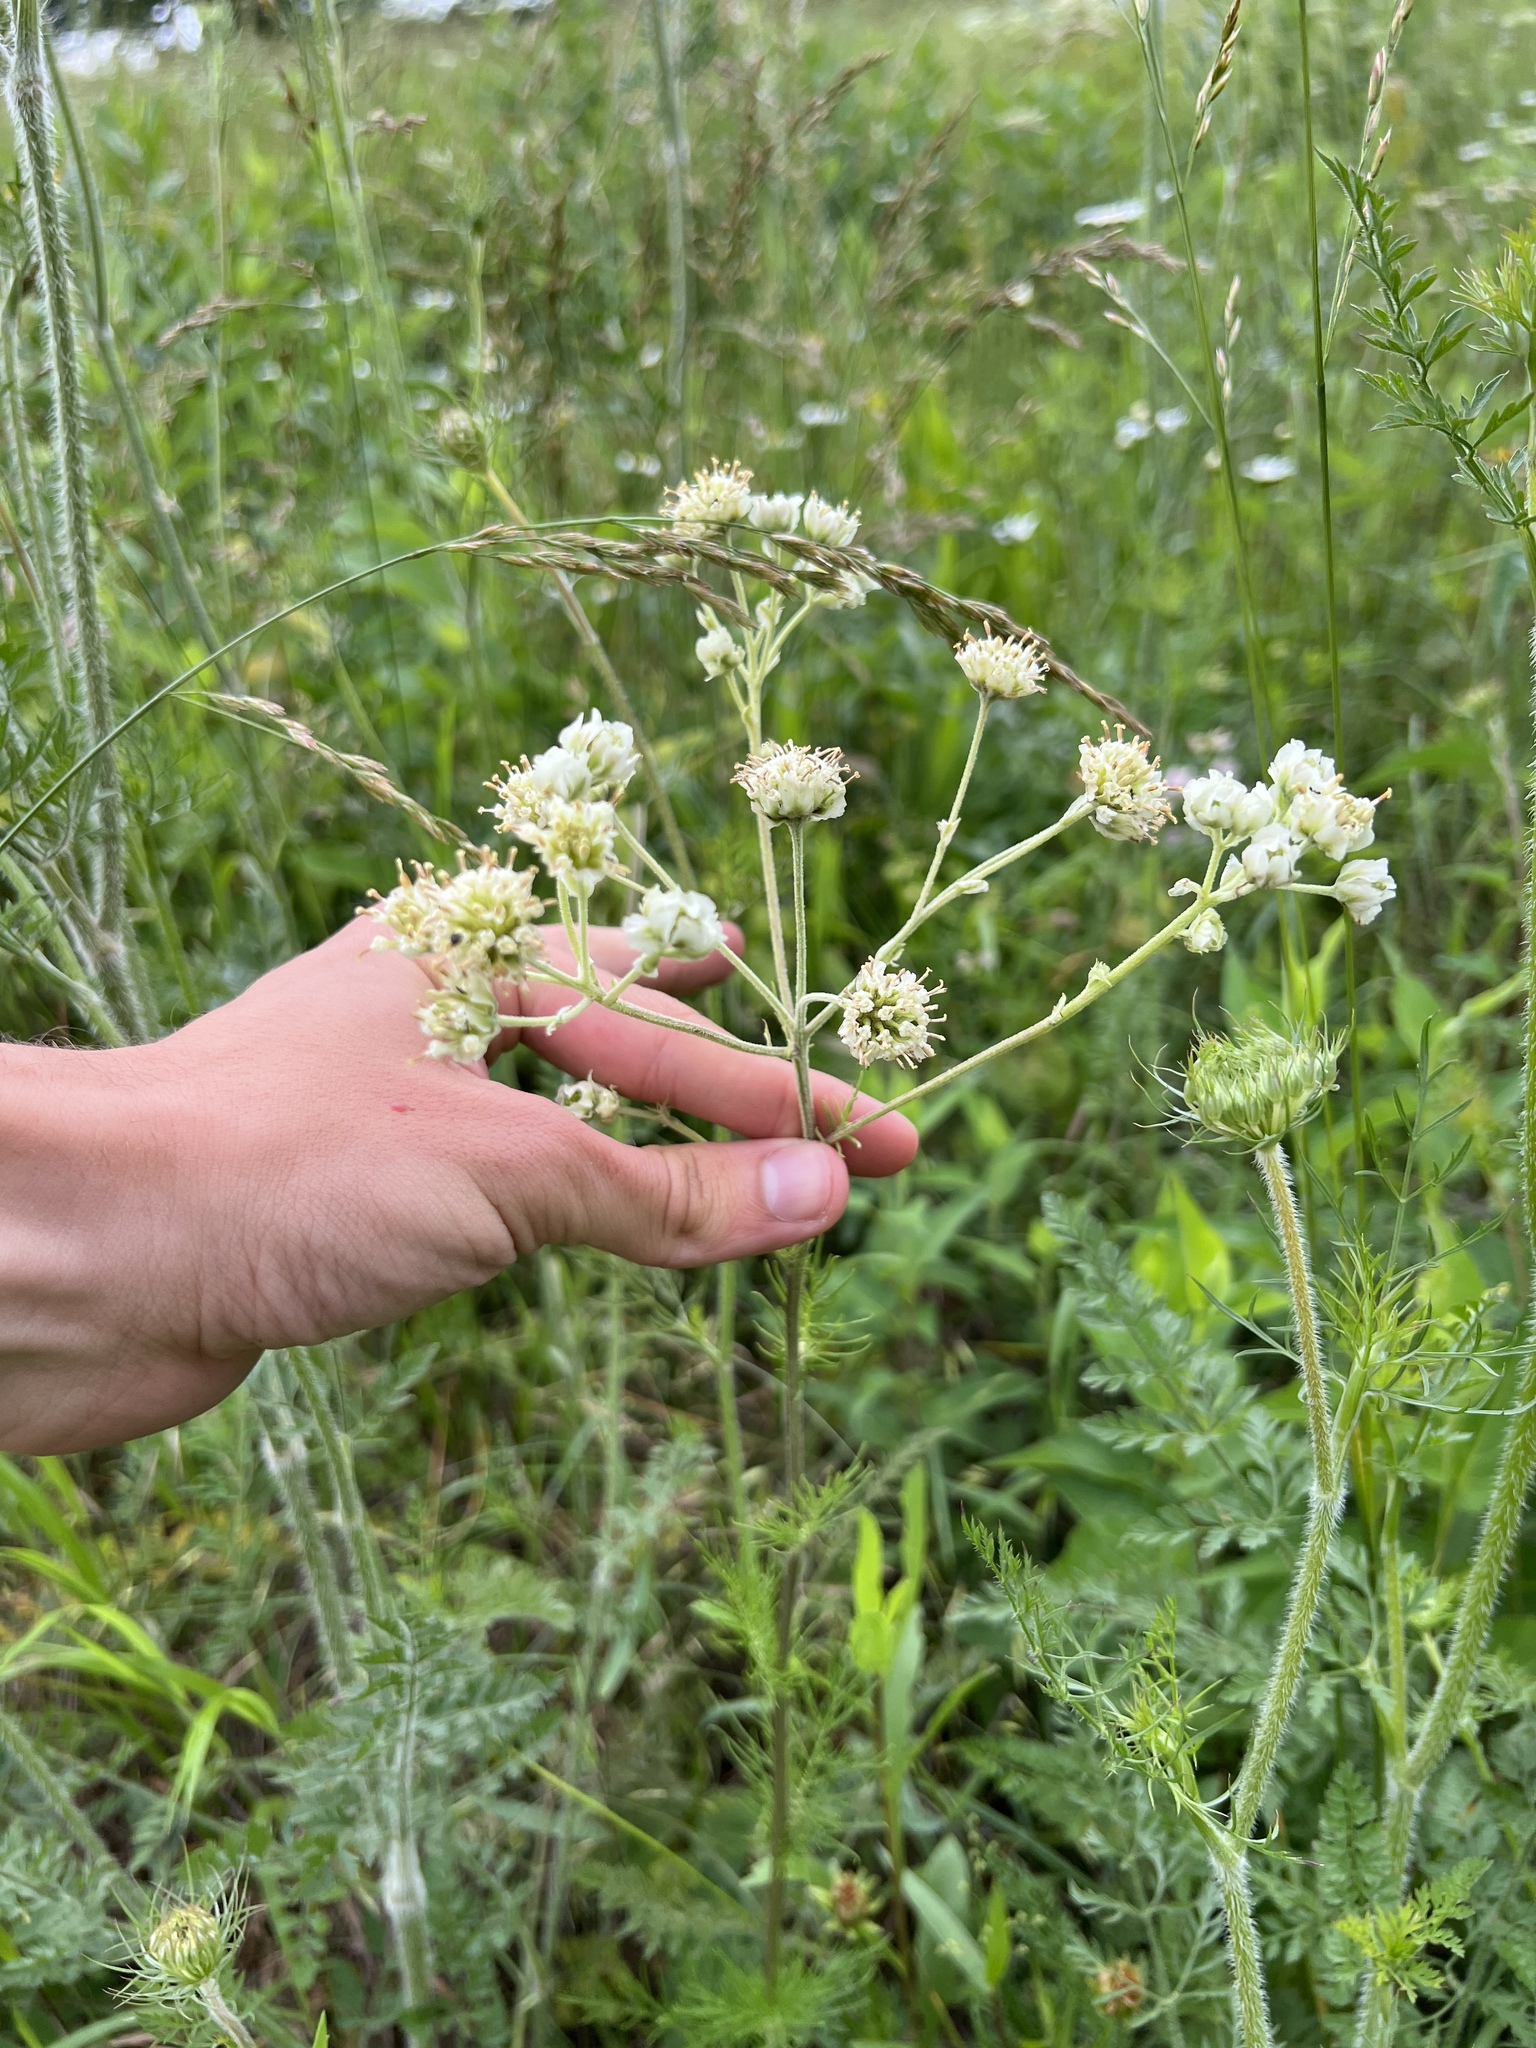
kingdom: Plantae
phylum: Tracheophyta
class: Magnoliopsida
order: Asterales
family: Asteraceae
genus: Hymenopappus
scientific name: Hymenopappus scabiosaeus
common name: Carolina woollywhite
